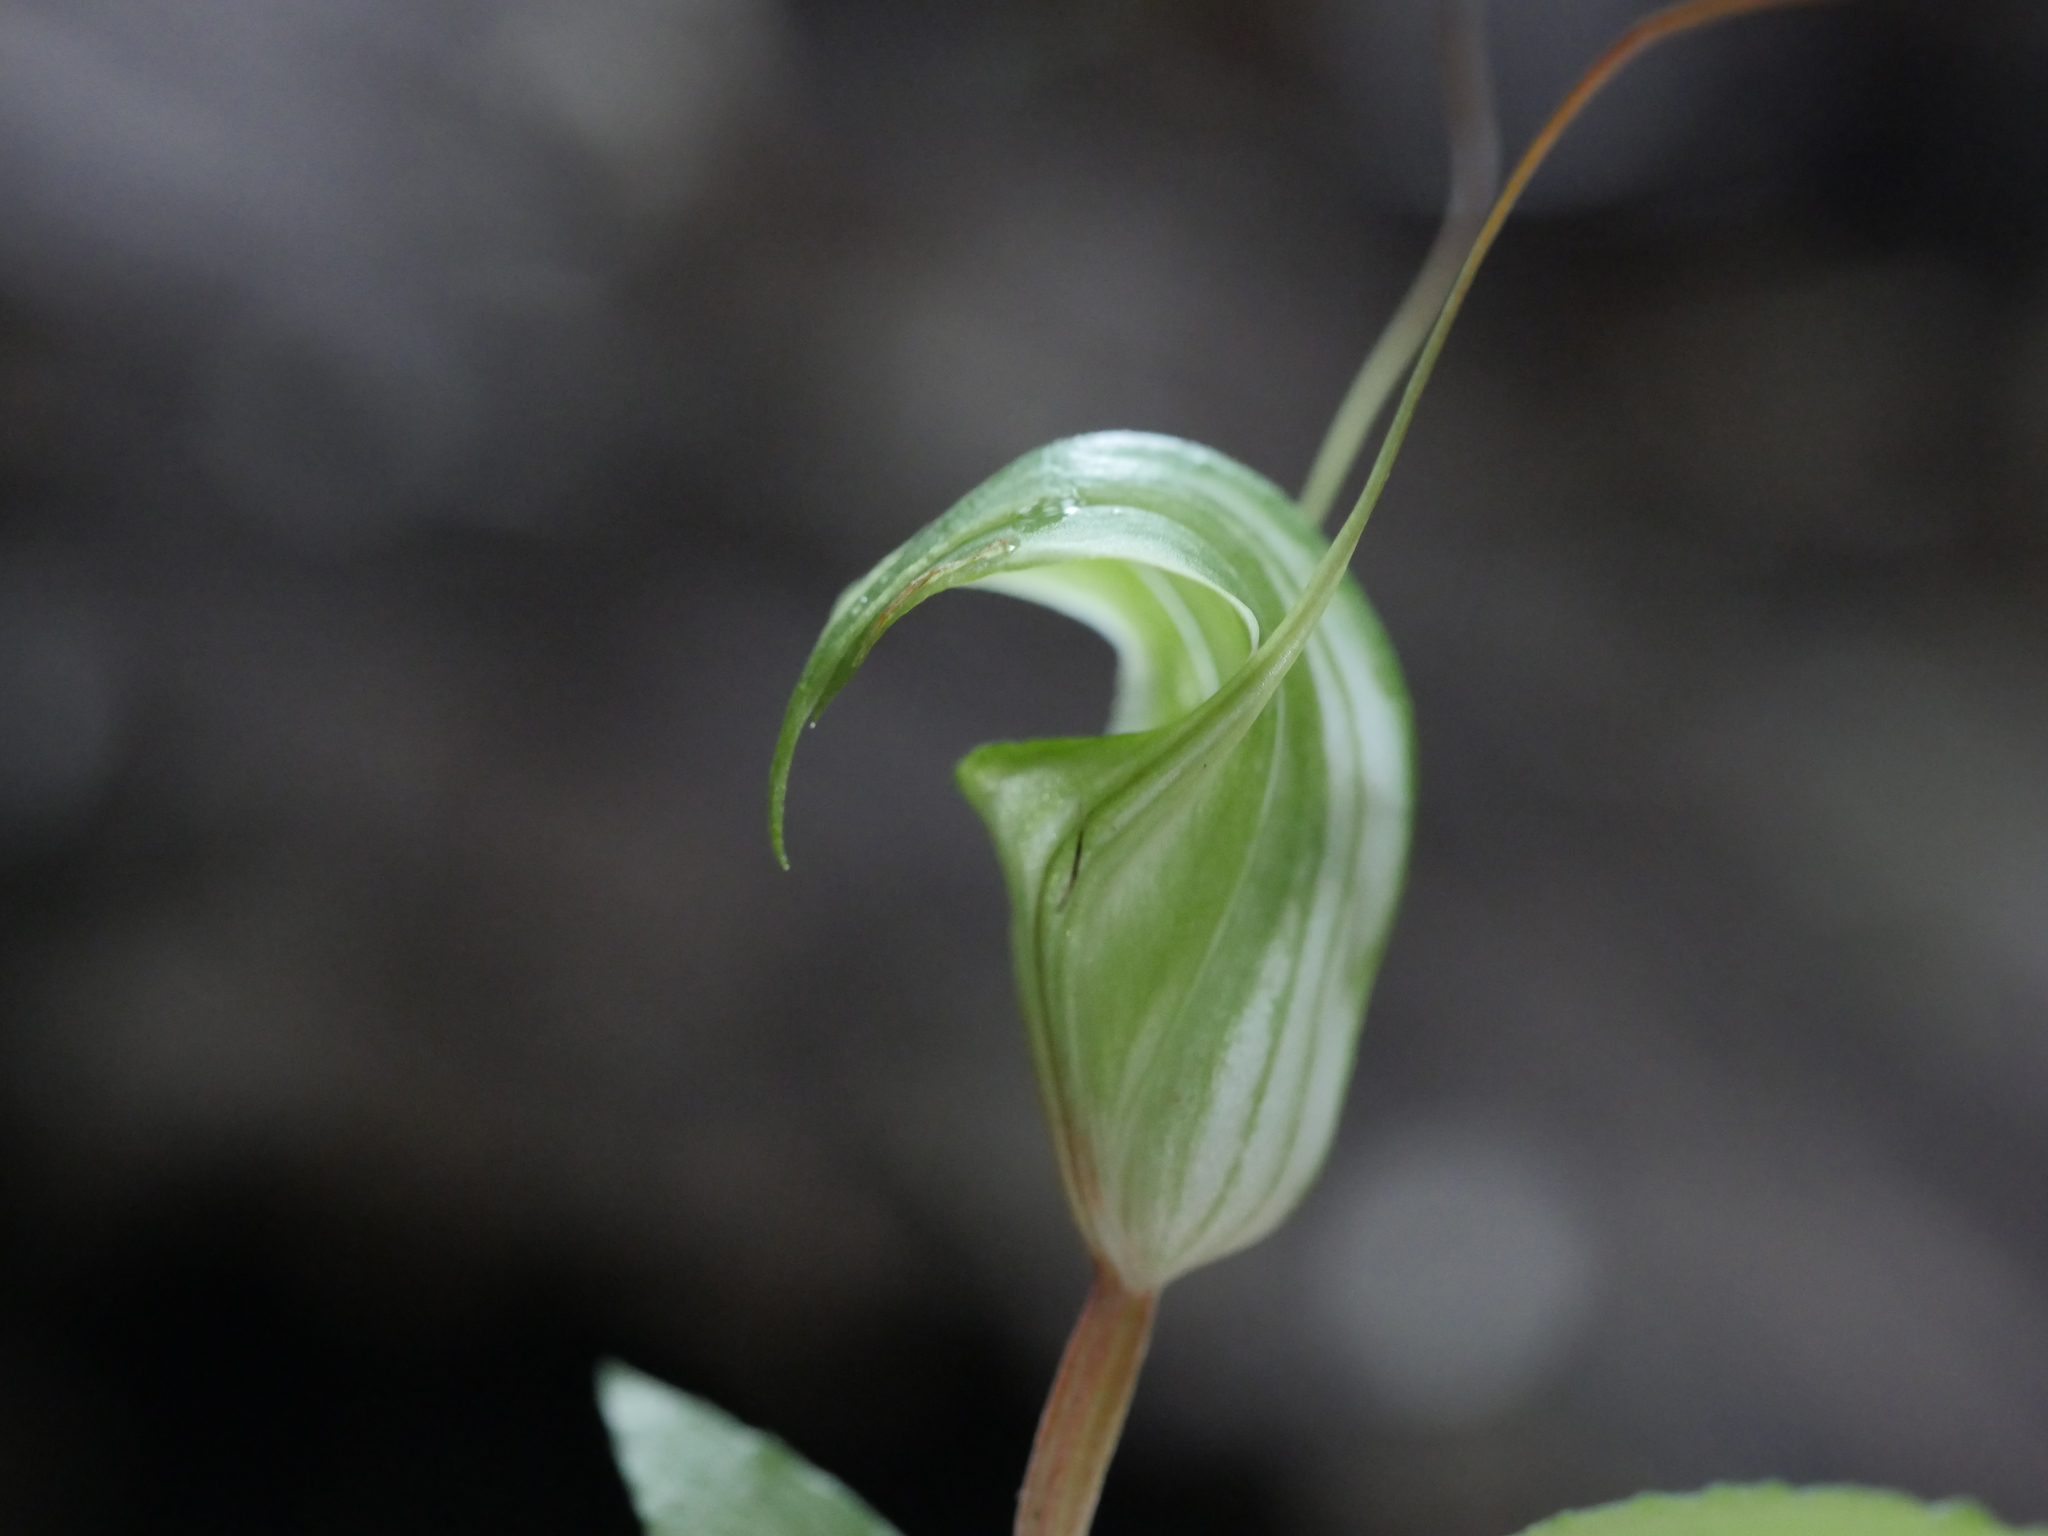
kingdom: Plantae
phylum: Tracheophyta
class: Liliopsida
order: Asparagales
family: Orchidaceae
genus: Pterostylis
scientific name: Pterostylis brumalis
